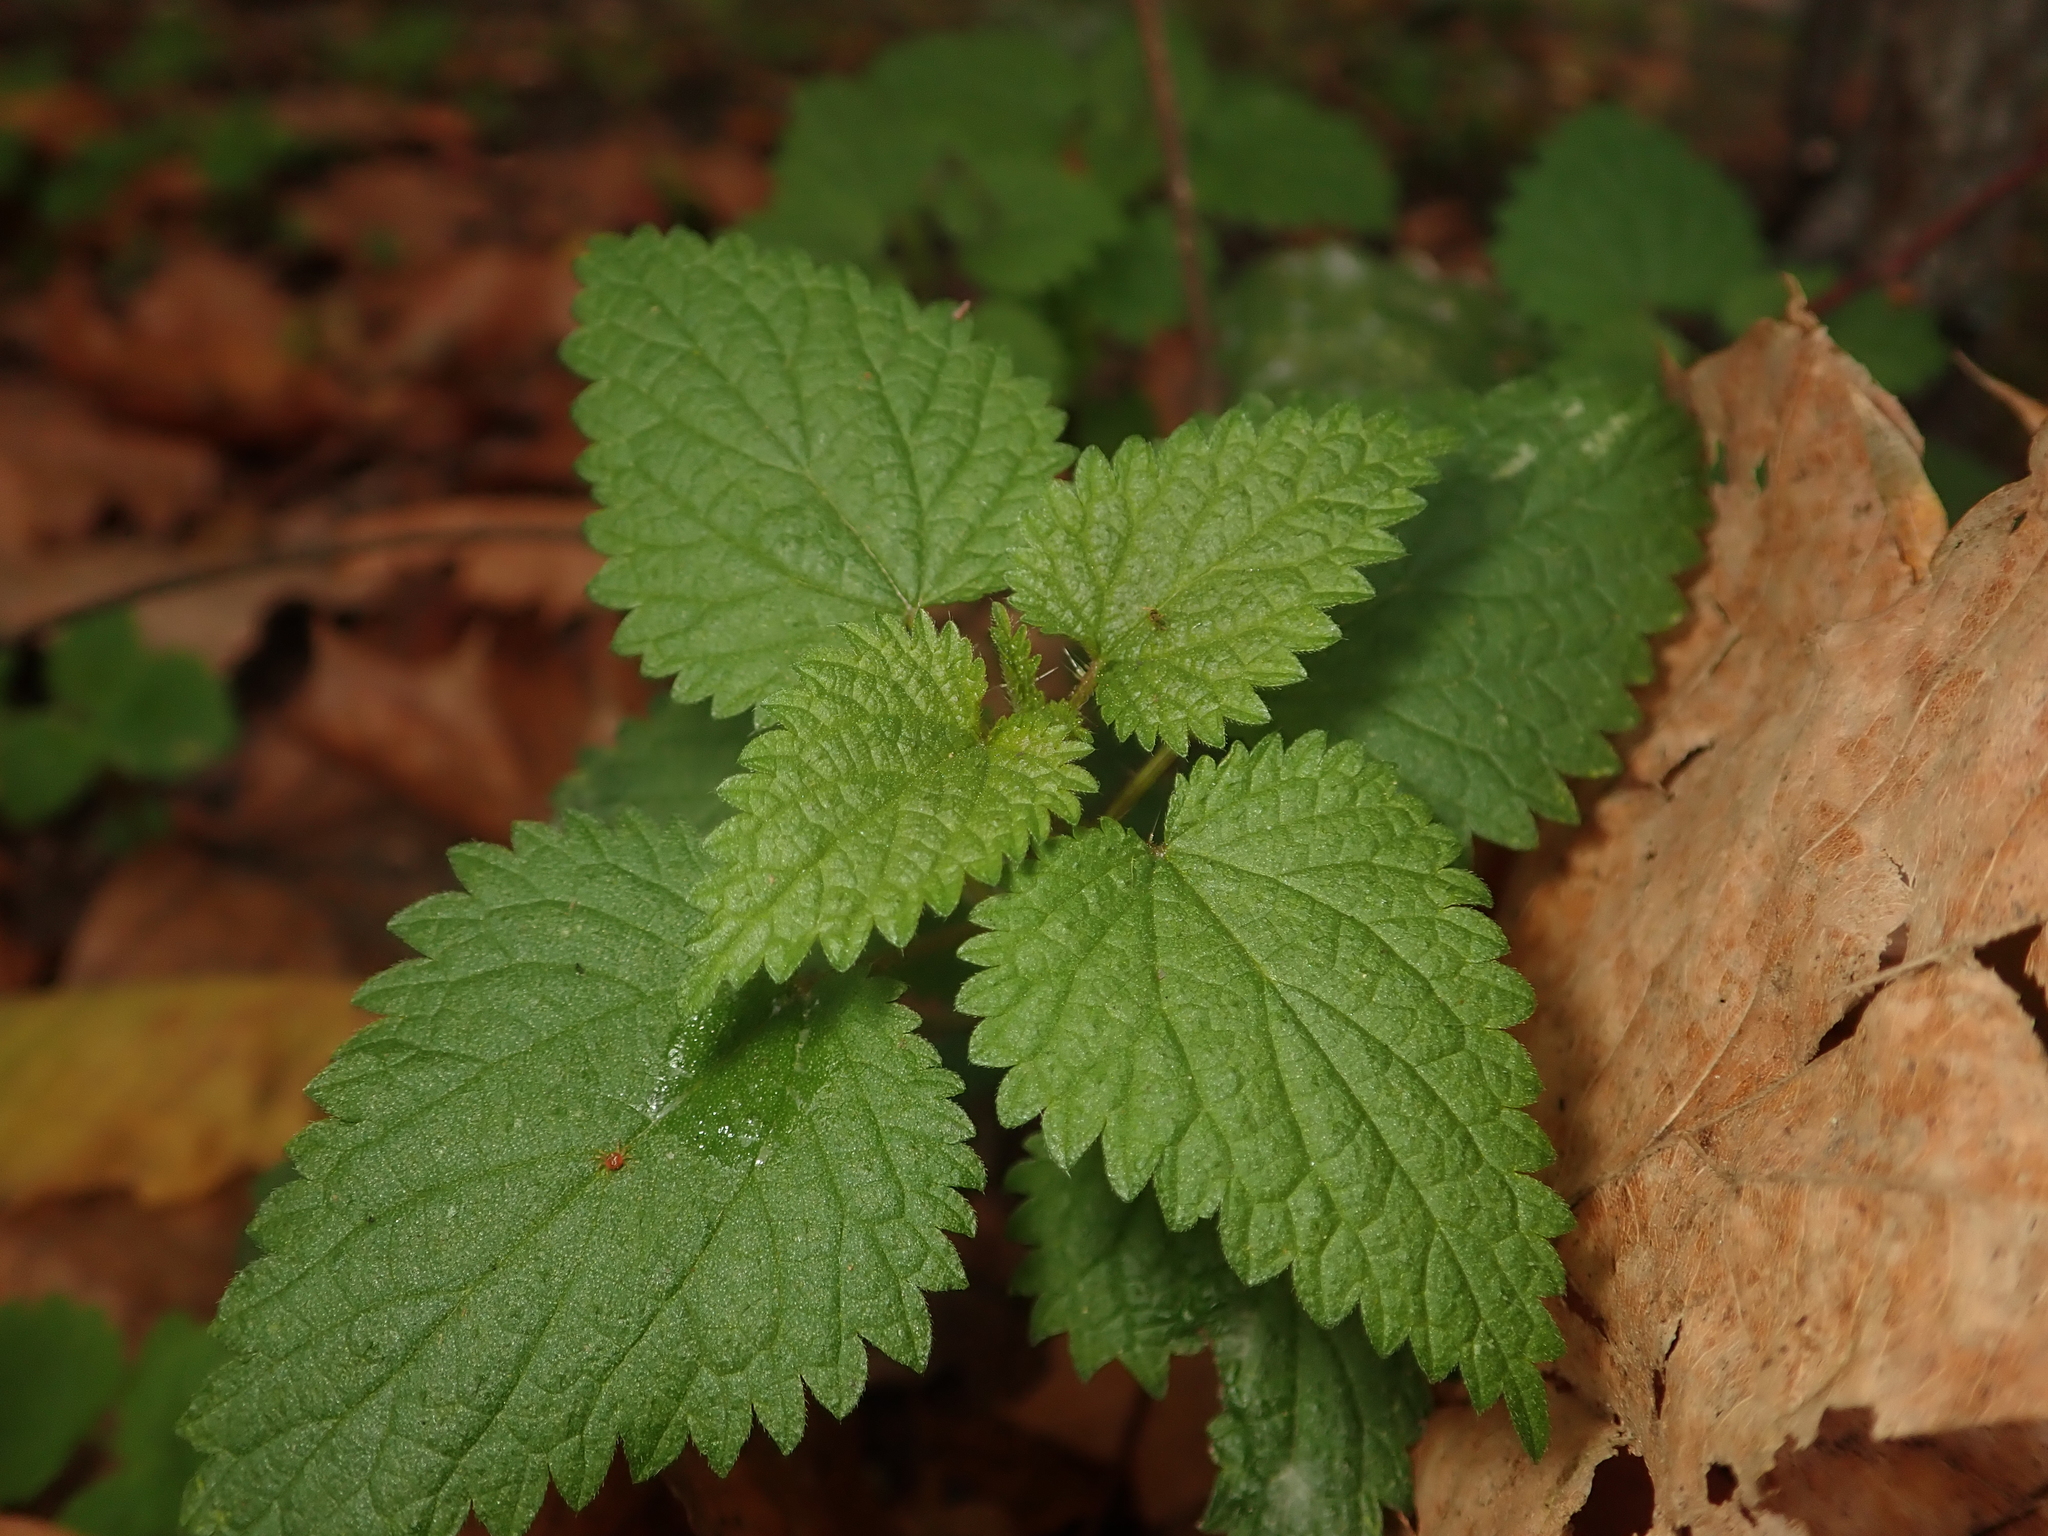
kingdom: Plantae
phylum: Tracheophyta
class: Magnoliopsida
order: Rosales
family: Urticaceae
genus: Urtica
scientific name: Urtica dioica
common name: Common nettle
